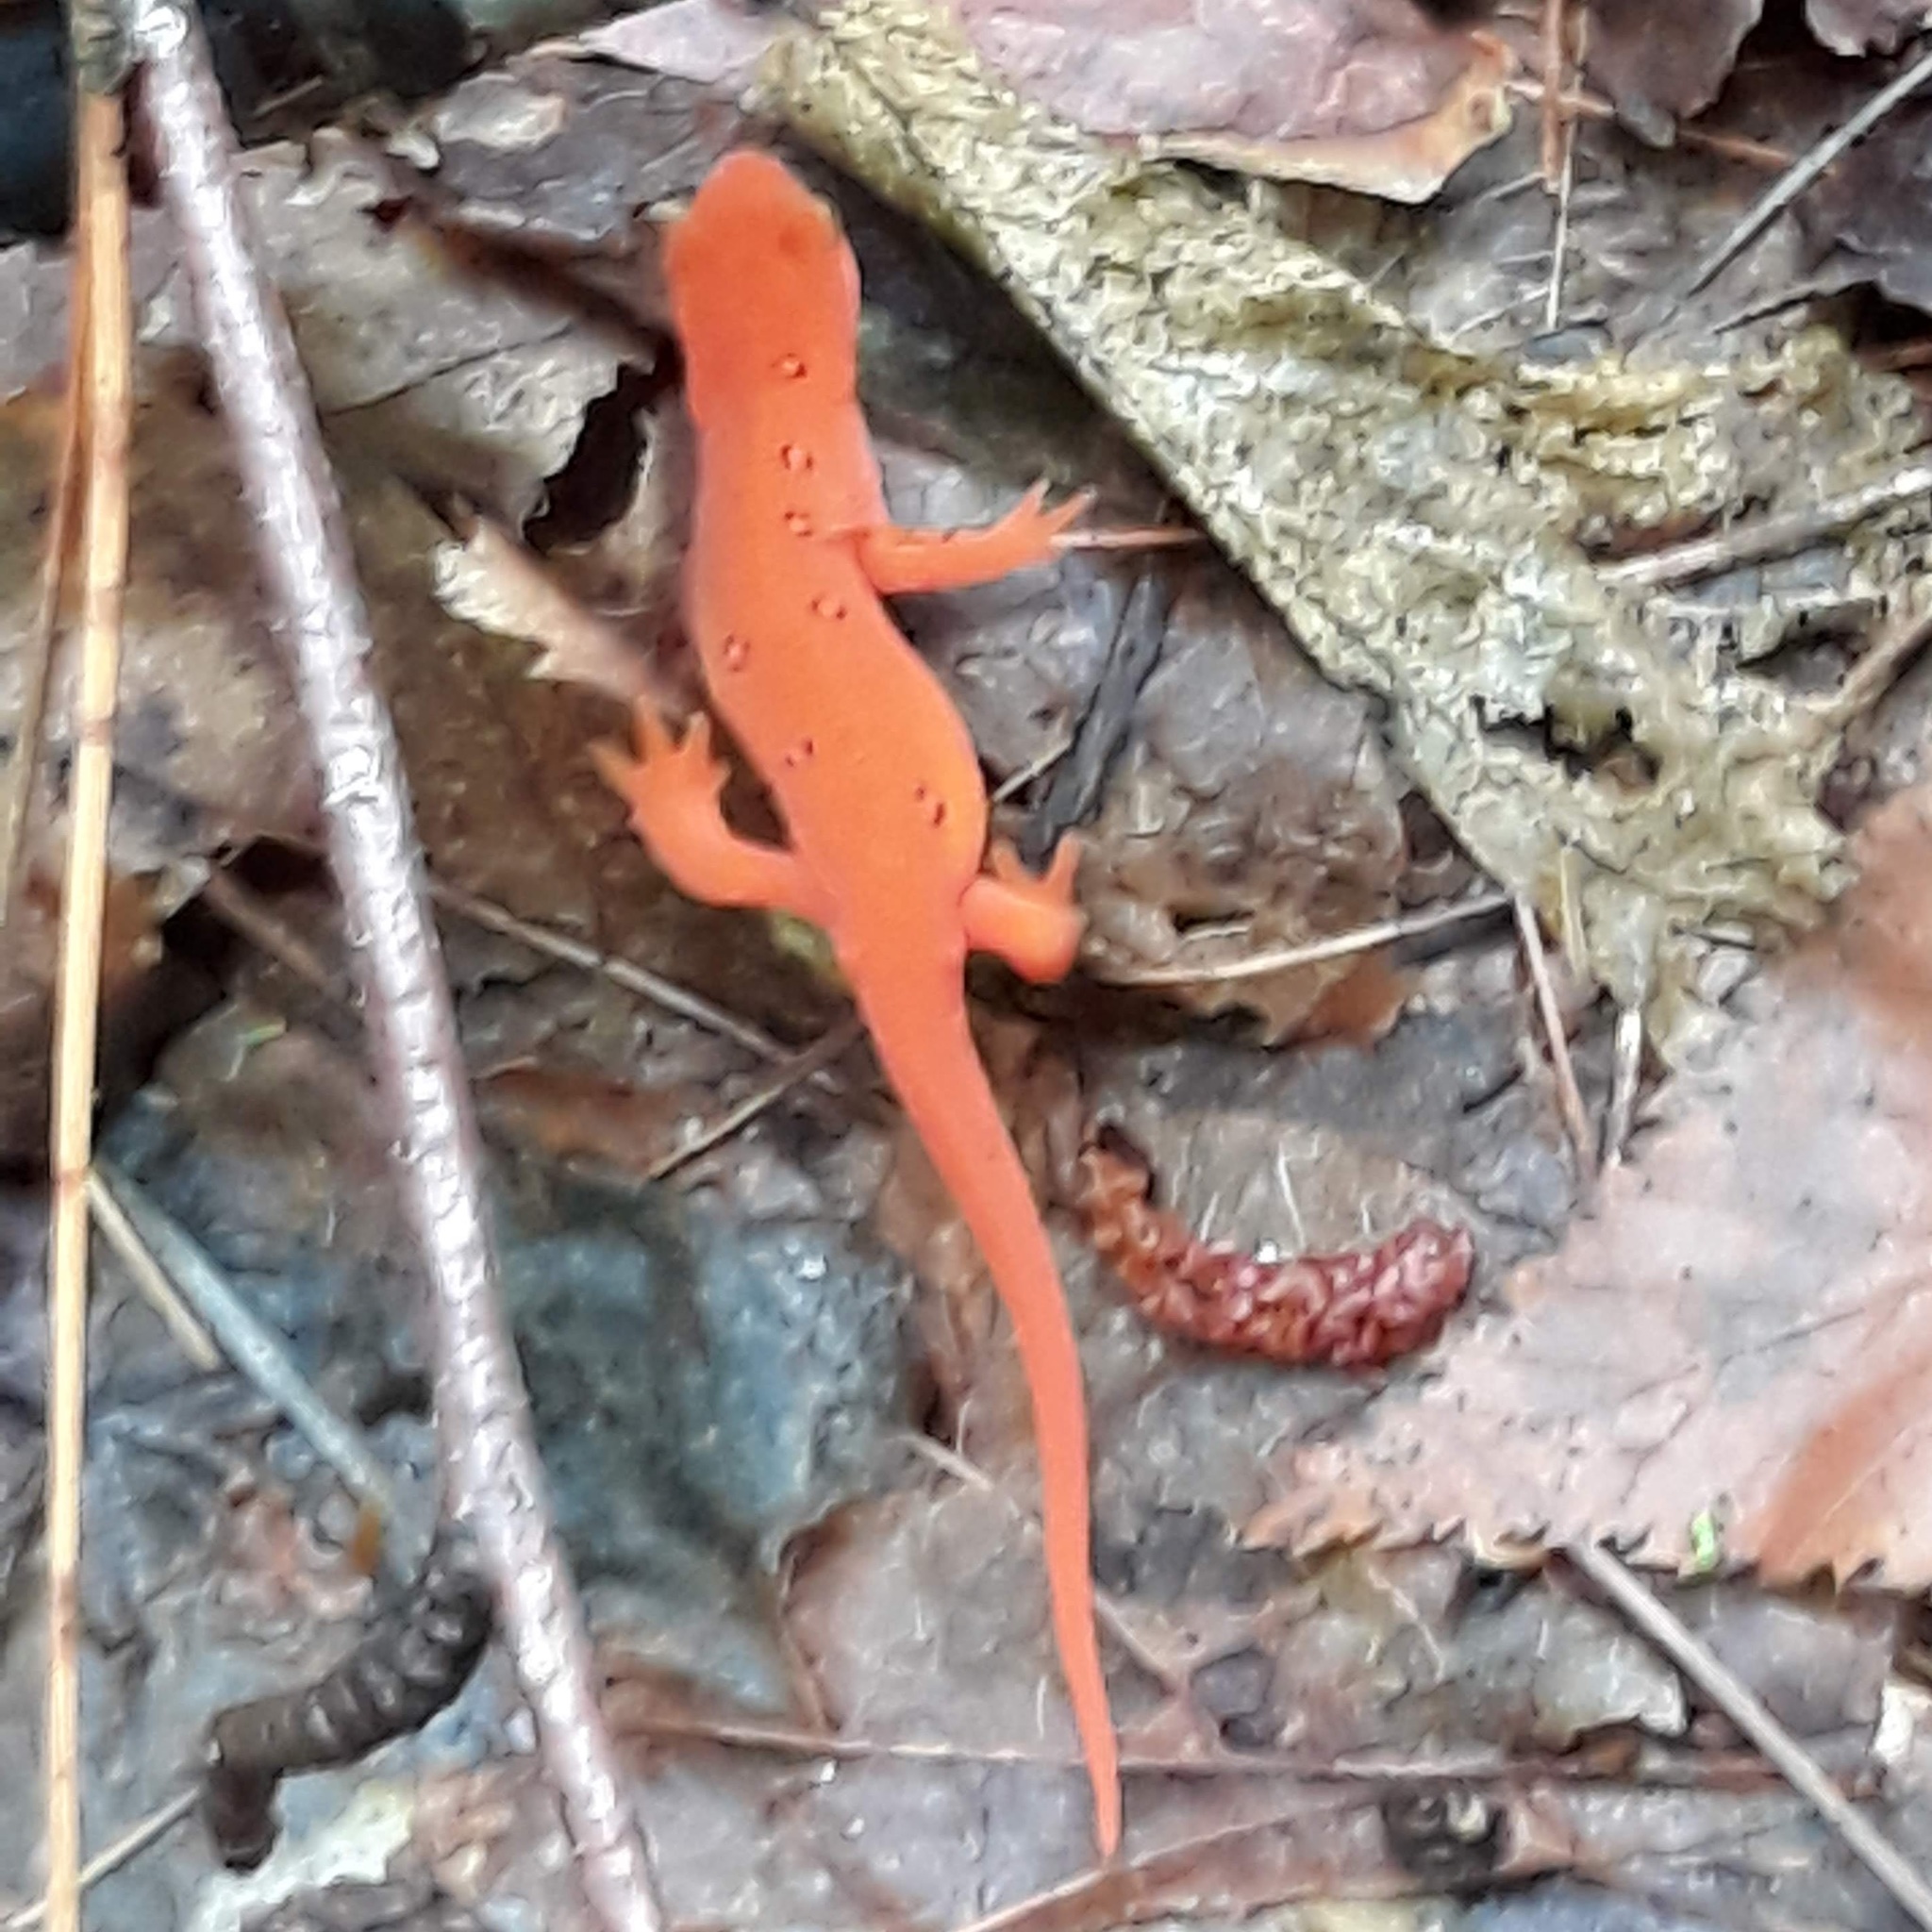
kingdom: Animalia
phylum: Chordata
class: Amphibia
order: Caudata
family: Salamandridae
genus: Notophthalmus
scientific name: Notophthalmus viridescens
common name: Eastern newt
